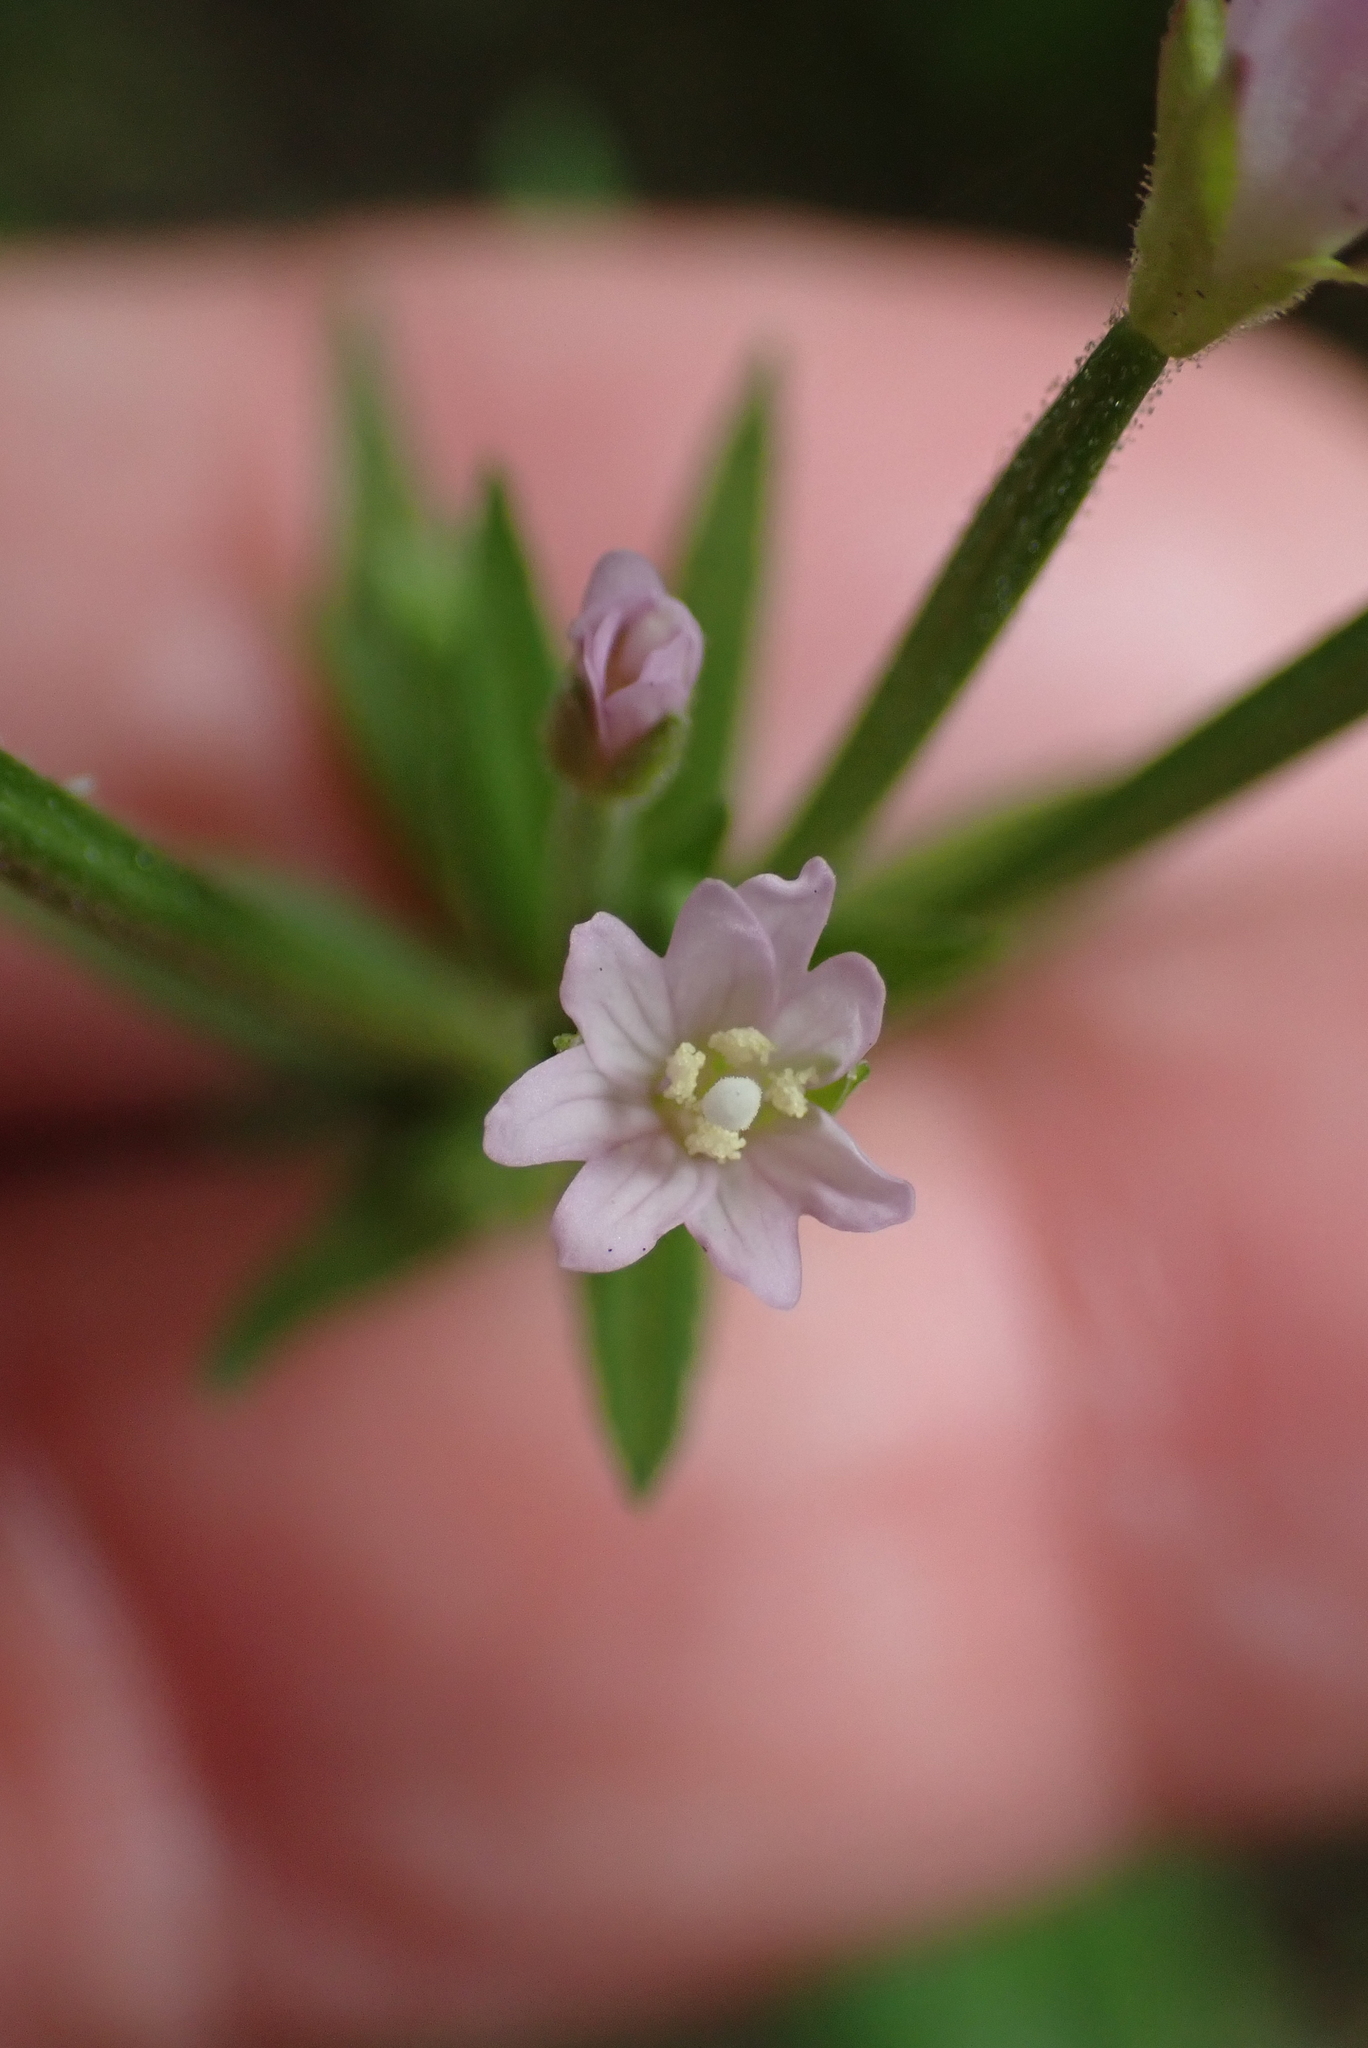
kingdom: Plantae
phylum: Tracheophyta
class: Magnoliopsida
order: Myrtales
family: Onagraceae
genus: Epilobium
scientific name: Epilobium ciliatum
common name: American willowherb
